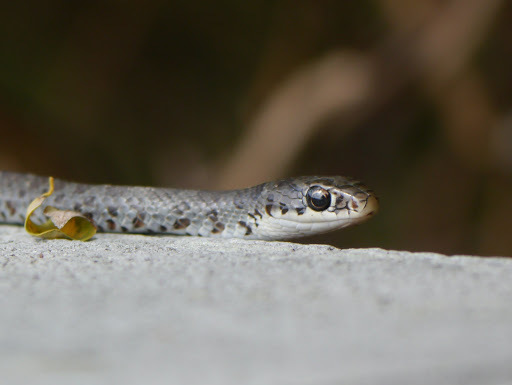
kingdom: Animalia
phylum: Chordata
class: Squamata
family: Colubridae
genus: Coluber
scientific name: Coluber constrictor
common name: Eastern racer
